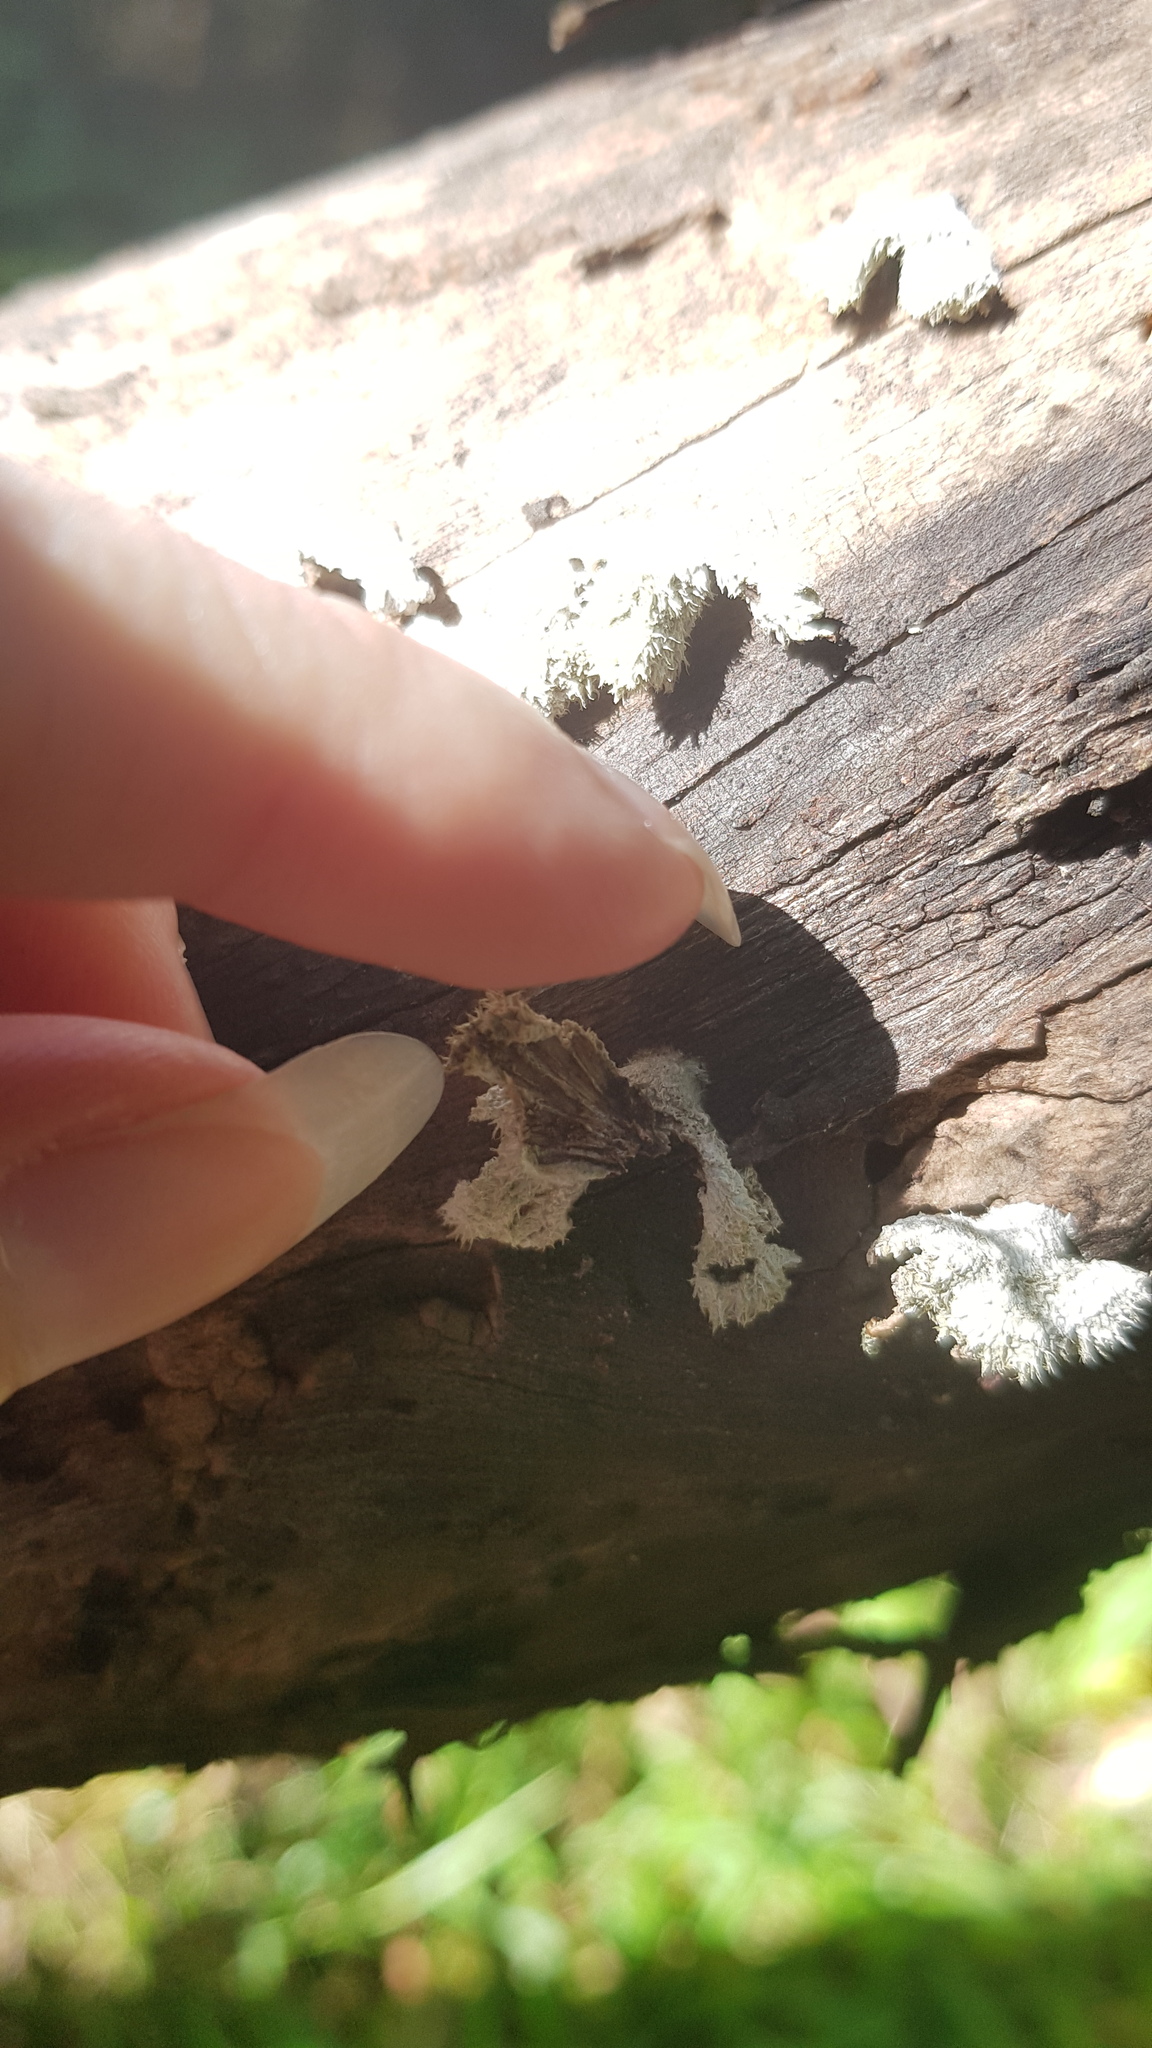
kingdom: Fungi
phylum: Basidiomycota
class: Agaricomycetes
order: Agaricales
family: Schizophyllaceae
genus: Schizophyllum
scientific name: Schizophyllum commune
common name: Common porecrust
